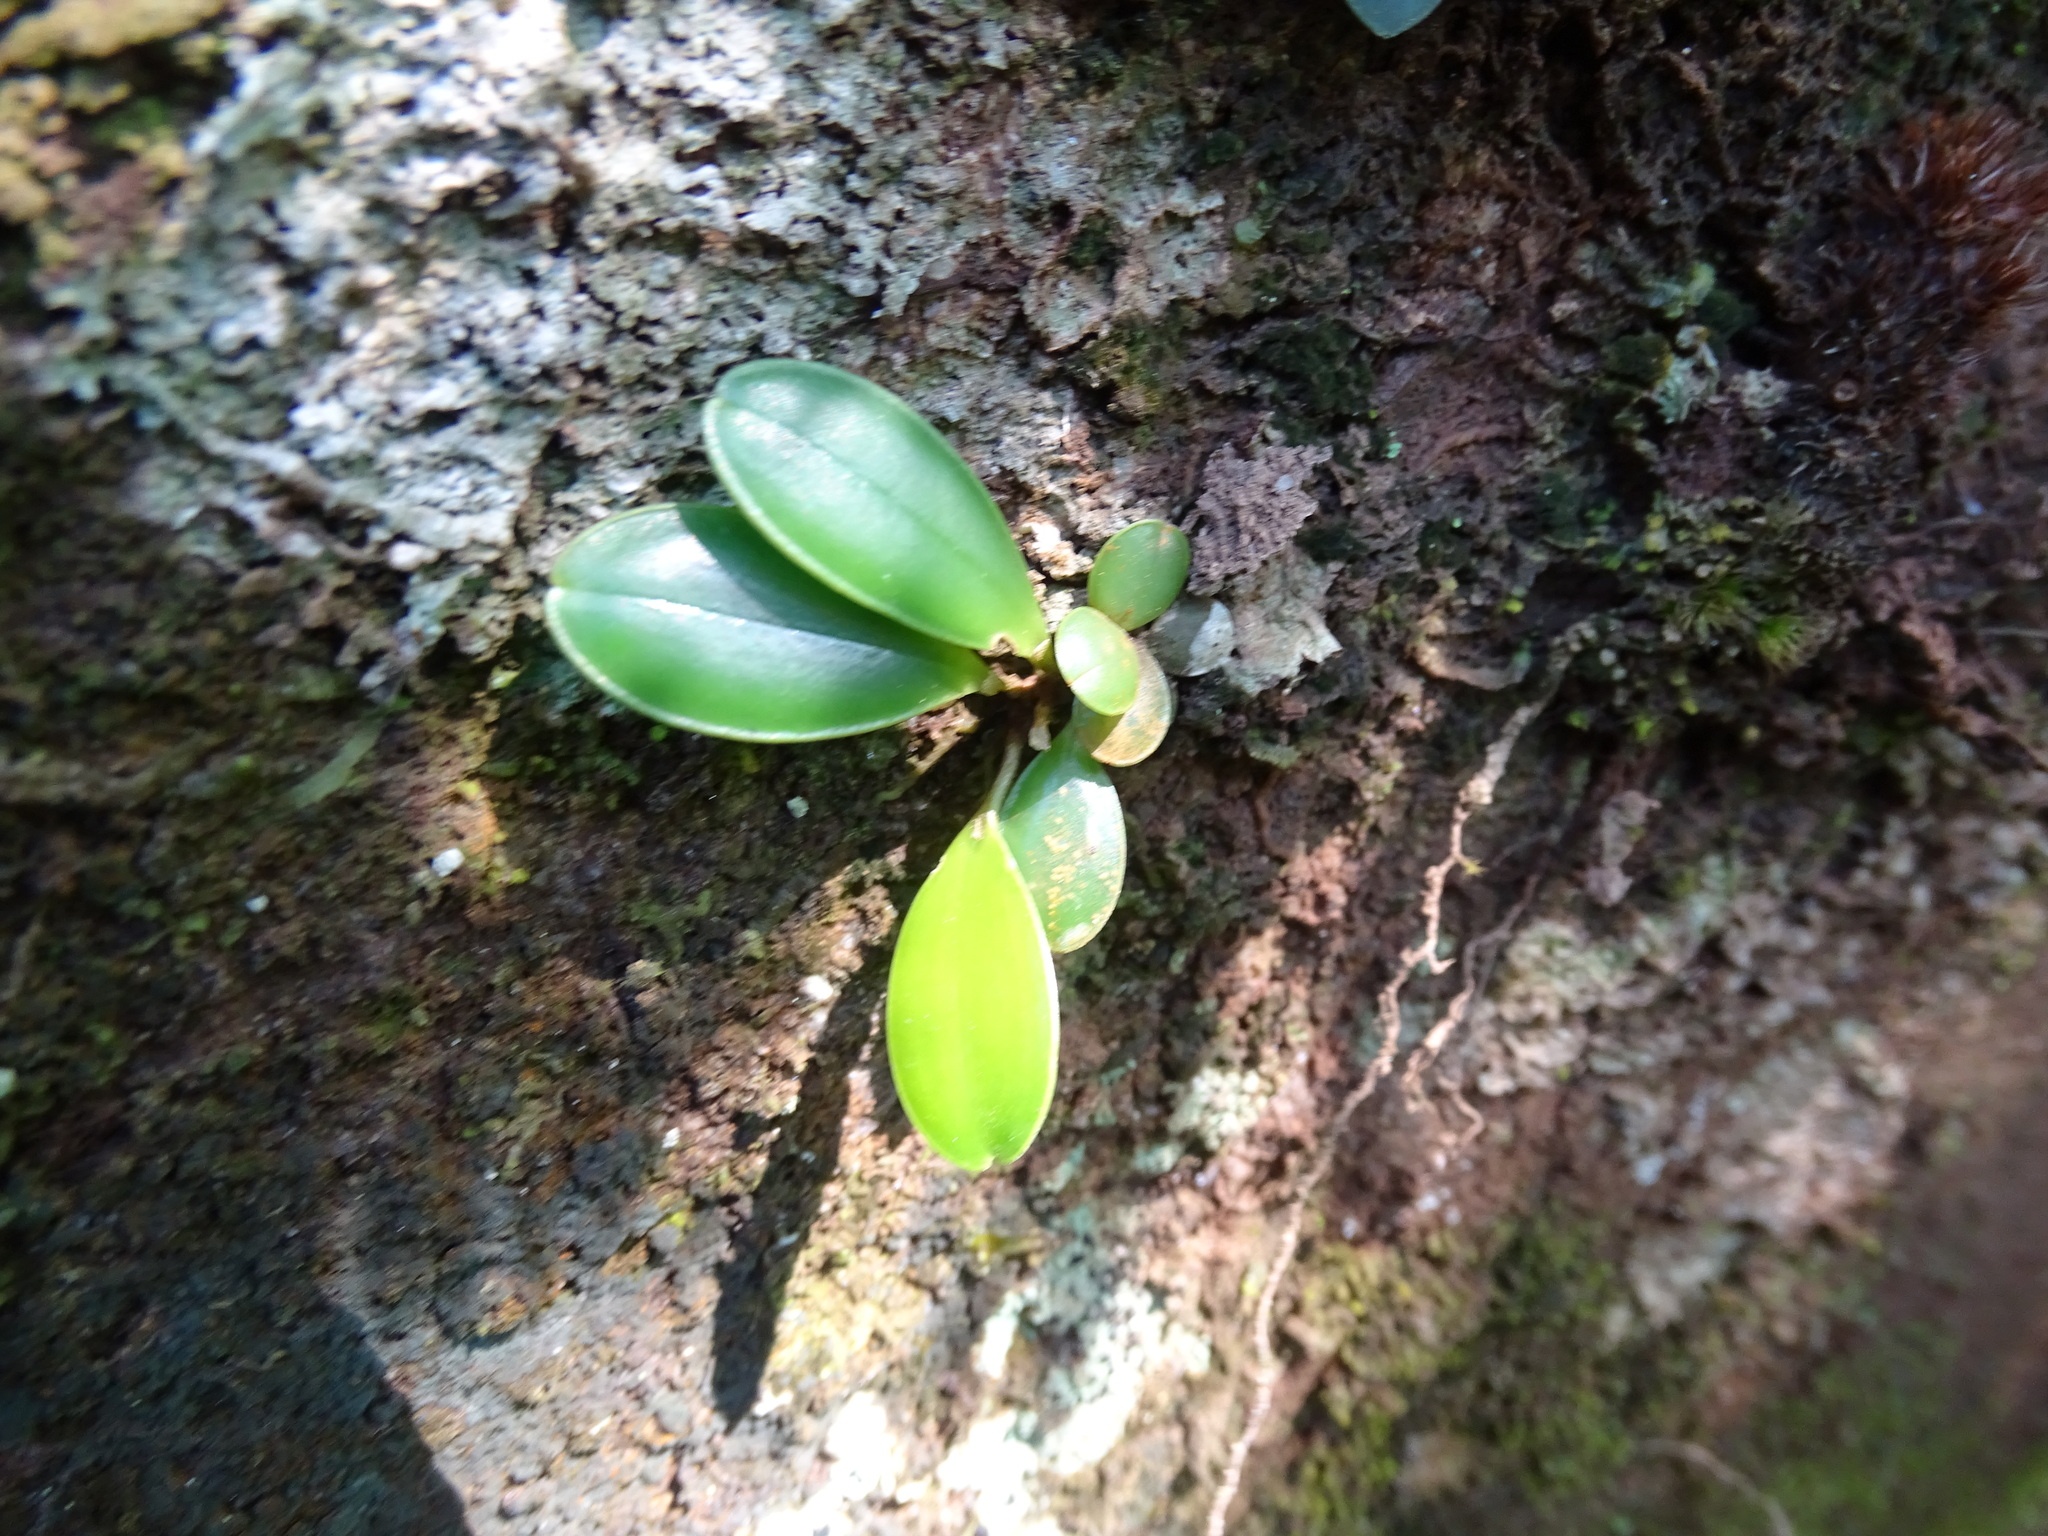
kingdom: Plantae
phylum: Tracheophyta
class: Liliopsida
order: Asparagales
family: Orchidaceae
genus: Specklinia
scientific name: Specklinia picta
